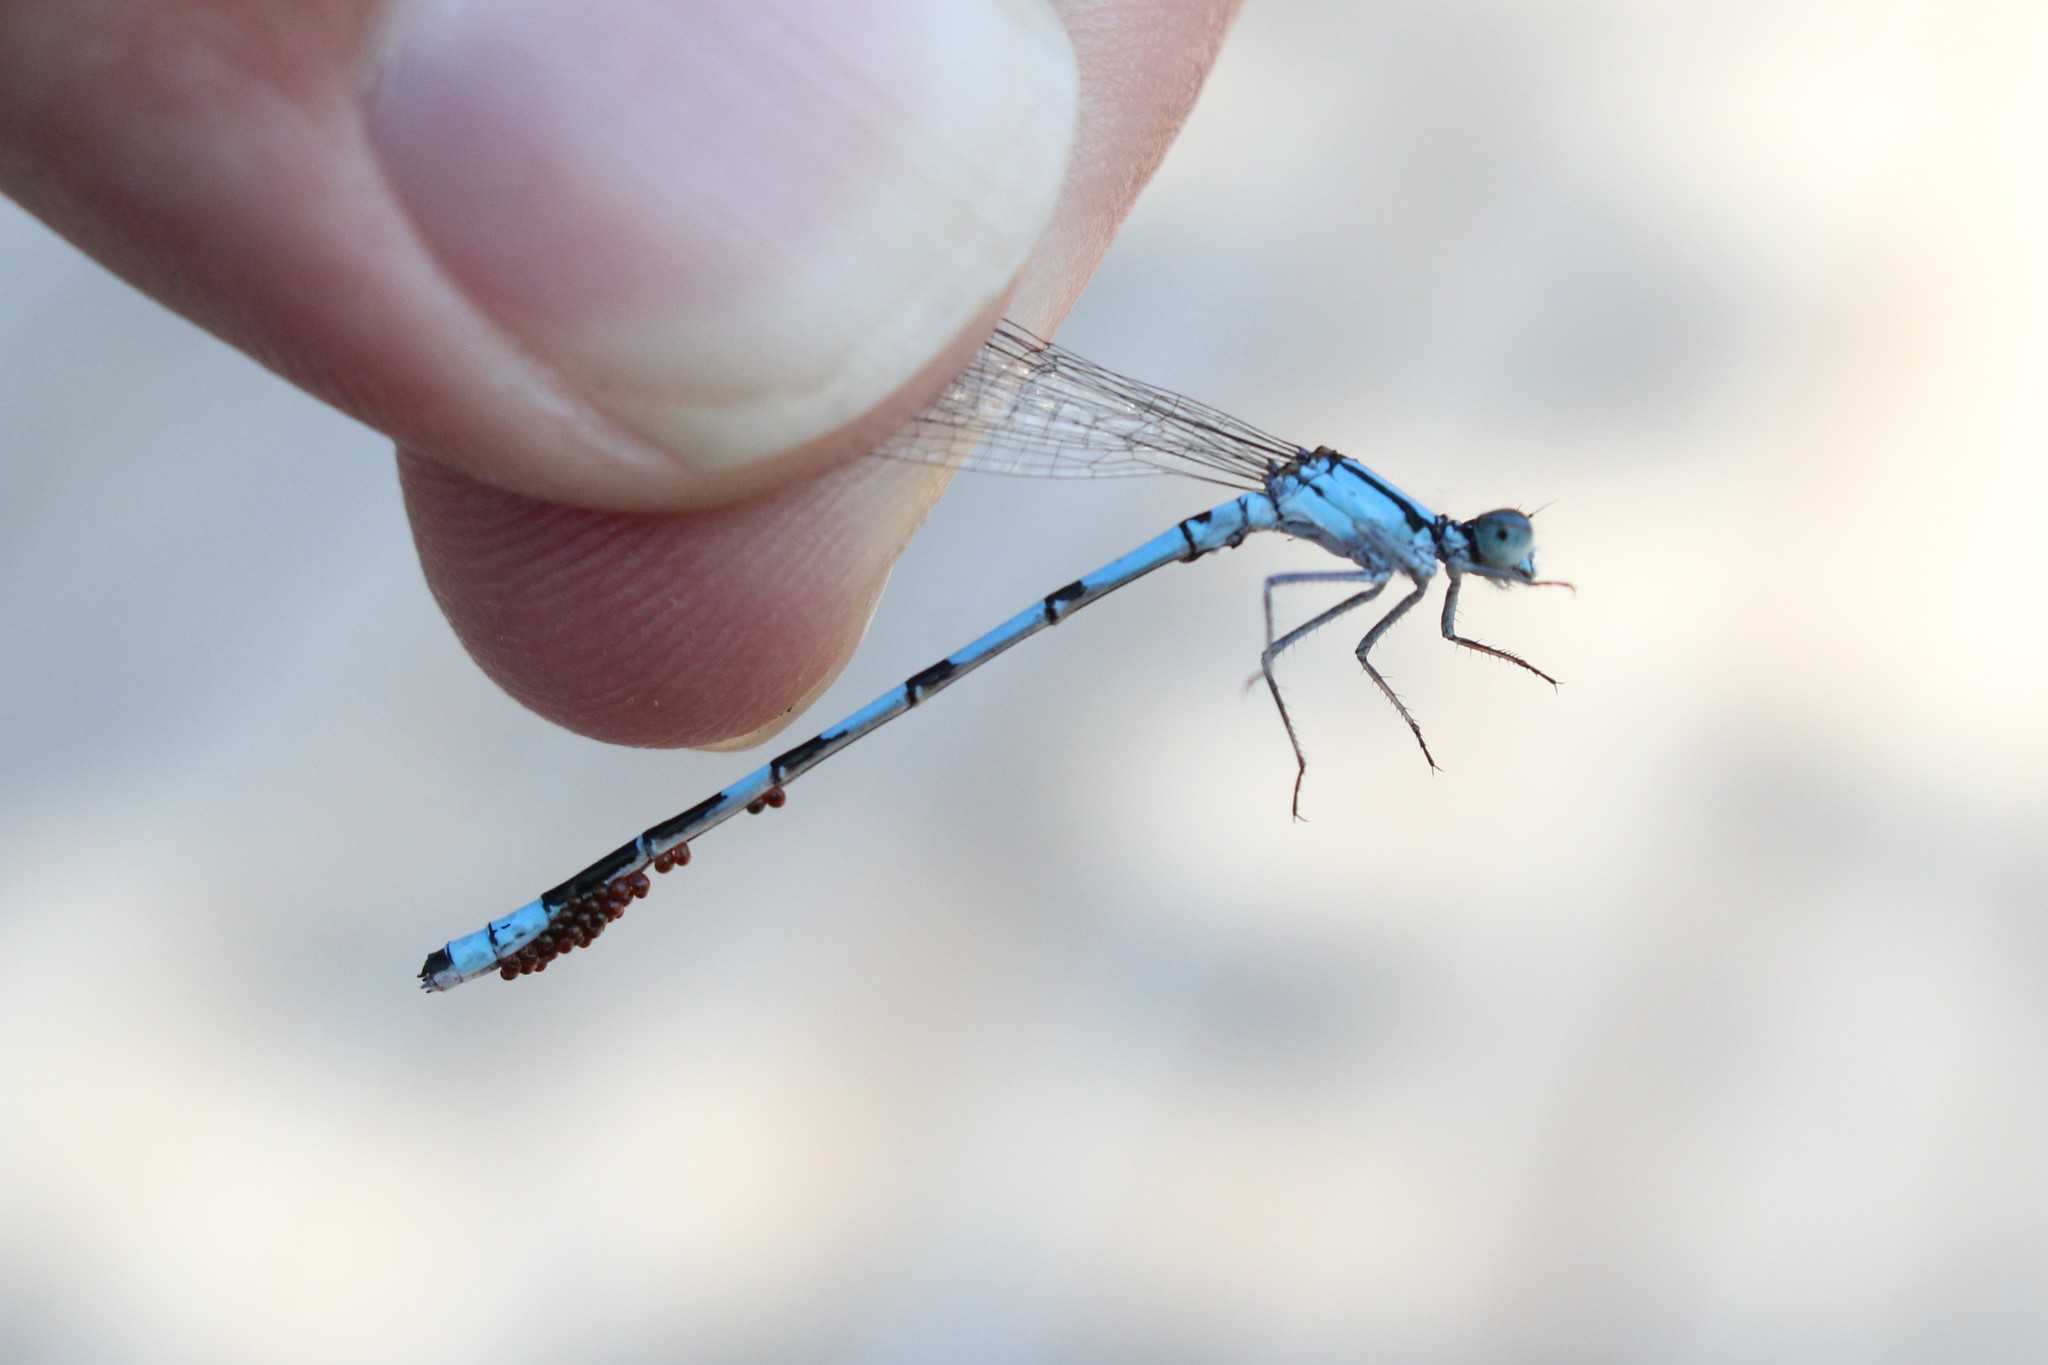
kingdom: Animalia
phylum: Arthropoda
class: Insecta
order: Odonata
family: Coenagrionidae
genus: Enallagma
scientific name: Enallagma hageni
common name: Hagen's bluet
